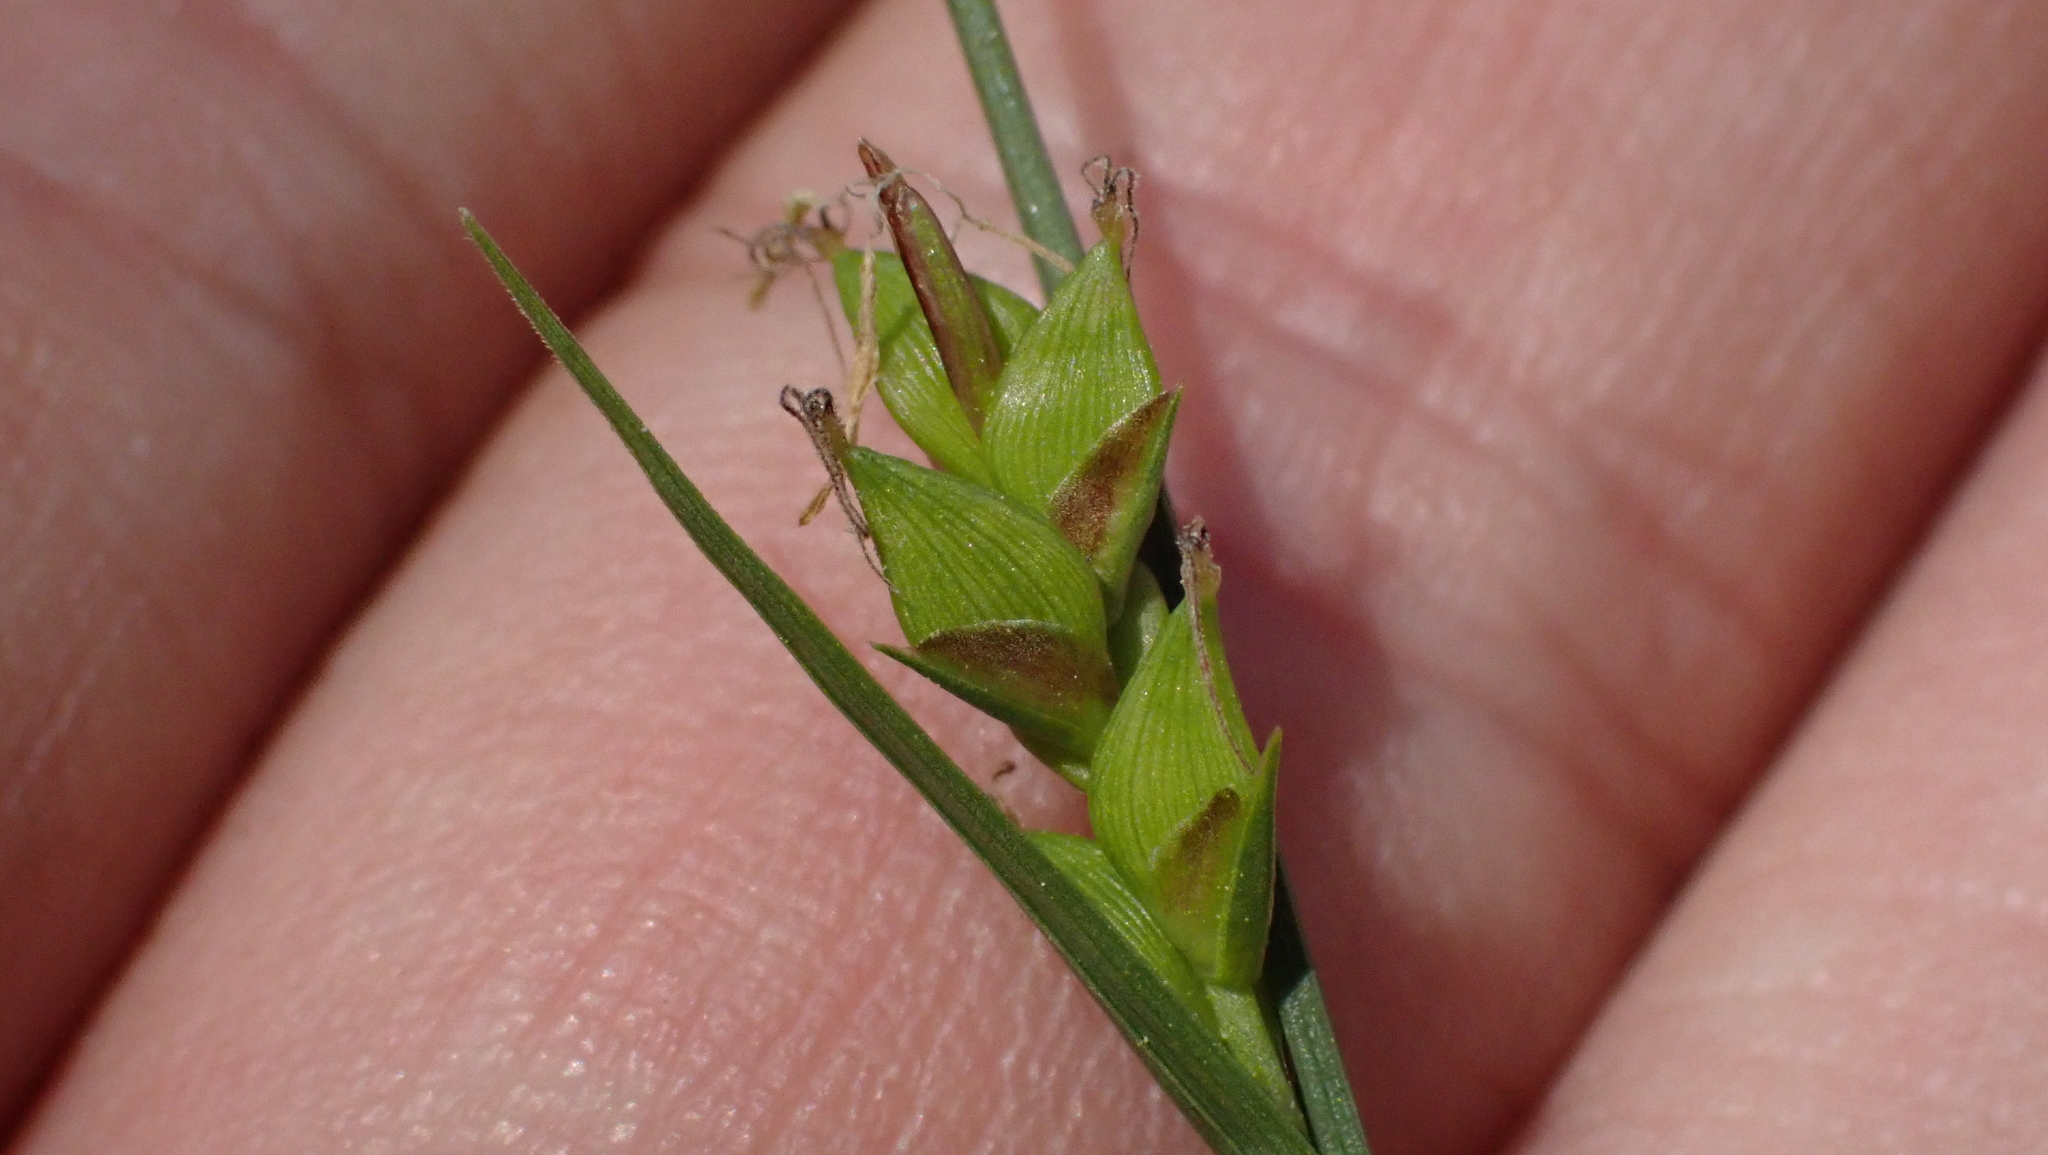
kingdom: Plantae
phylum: Tracheophyta
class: Liliopsida
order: Poales
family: Cyperaceae
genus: Carex
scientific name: Carex careyana
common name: Carey's sedge
